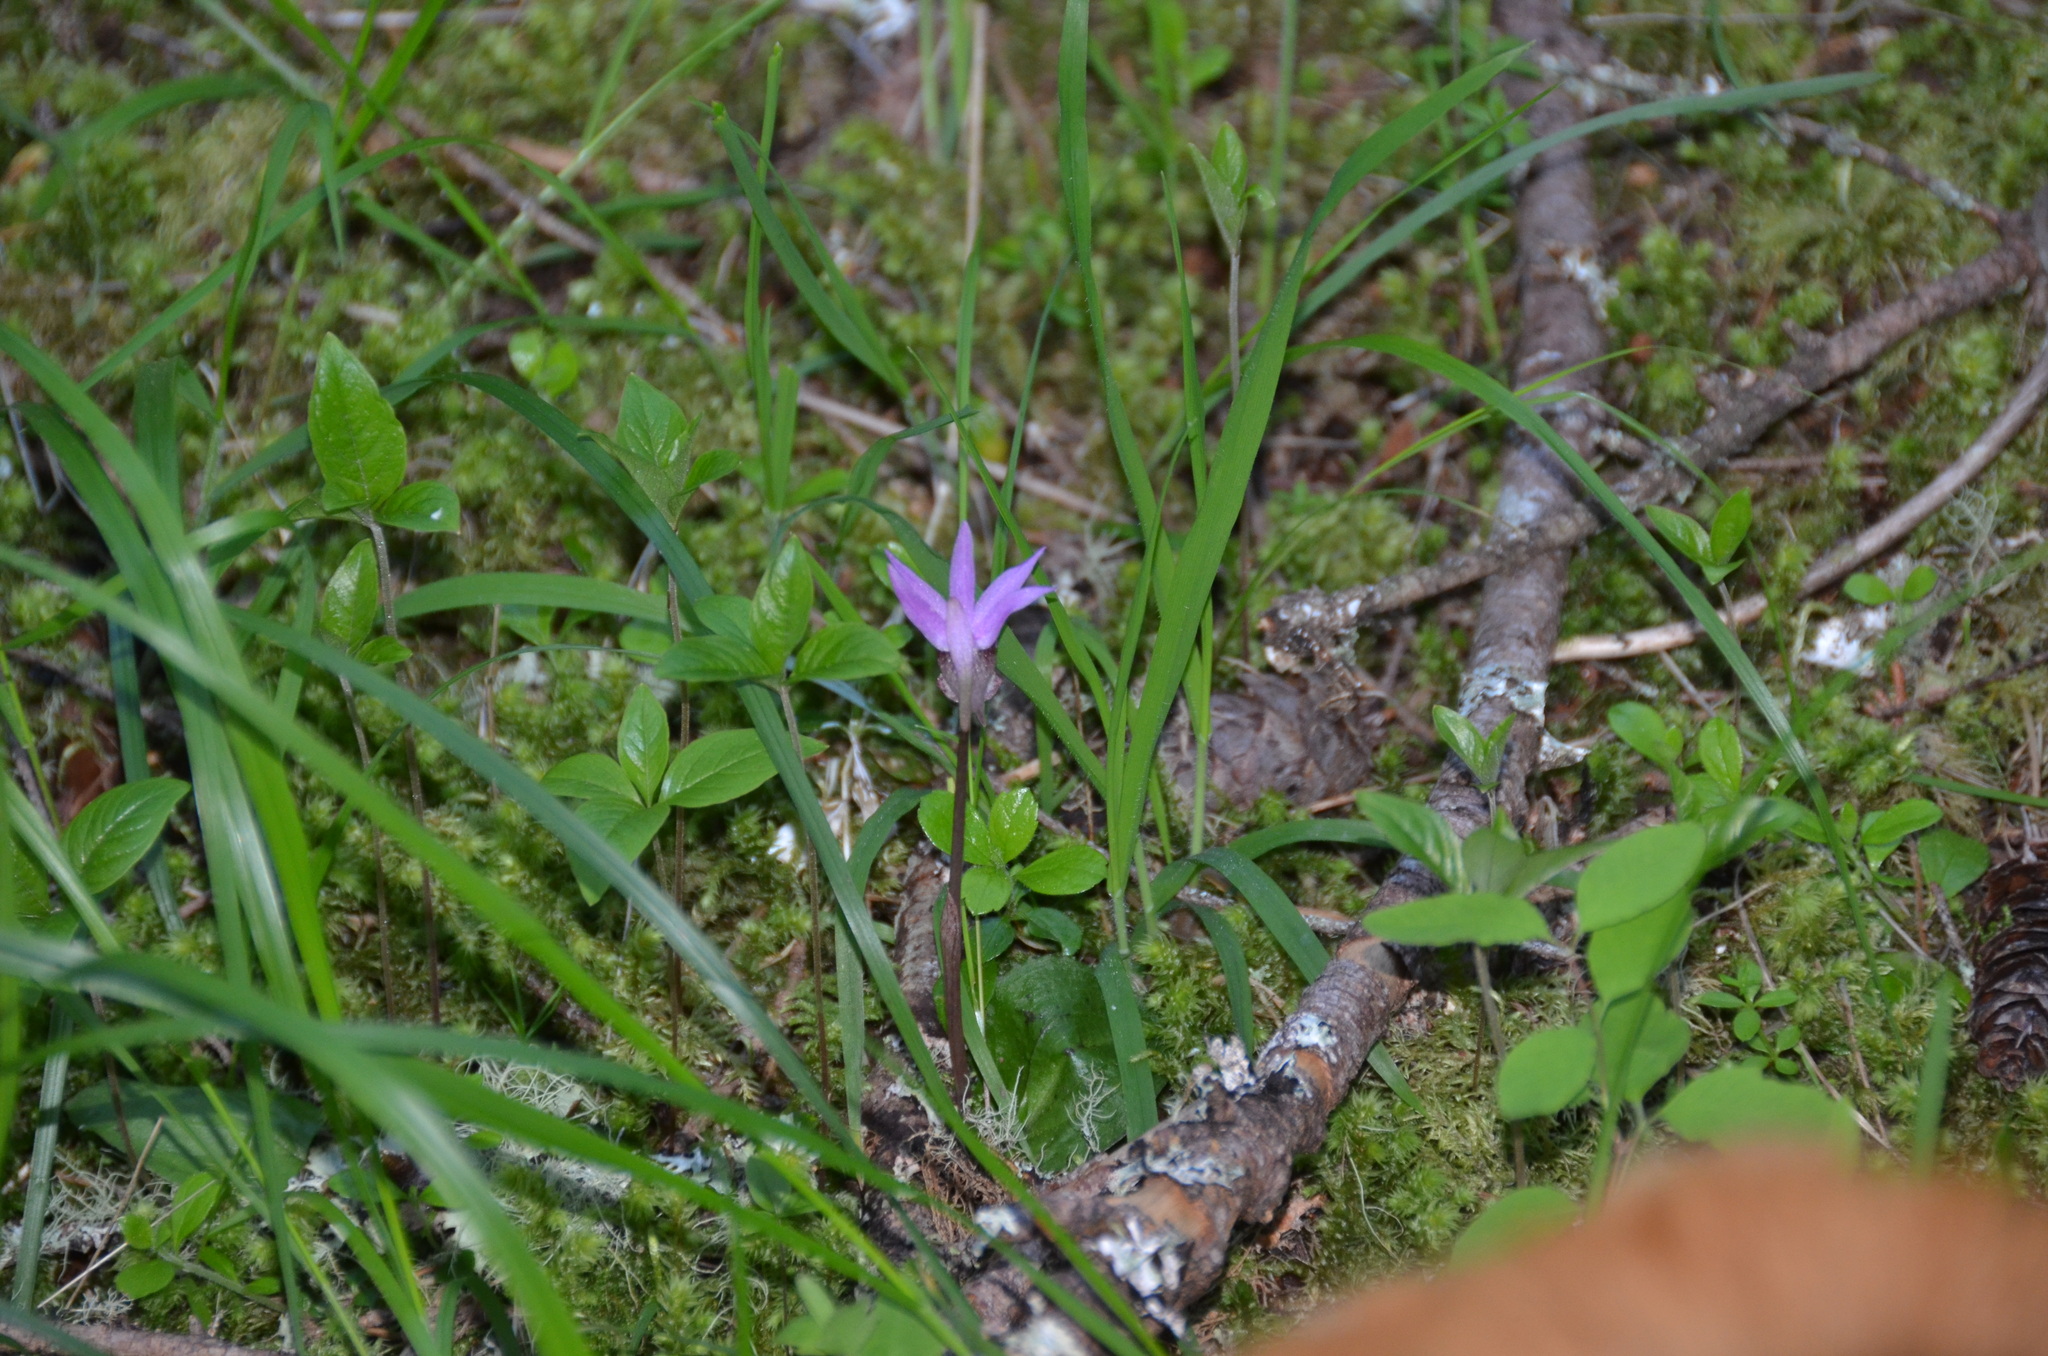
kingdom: Plantae
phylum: Tracheophyta
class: Liliopsida
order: Asparagales
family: Orchidaceae
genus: Calypso
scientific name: Calypso bulbosa
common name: Calypso
